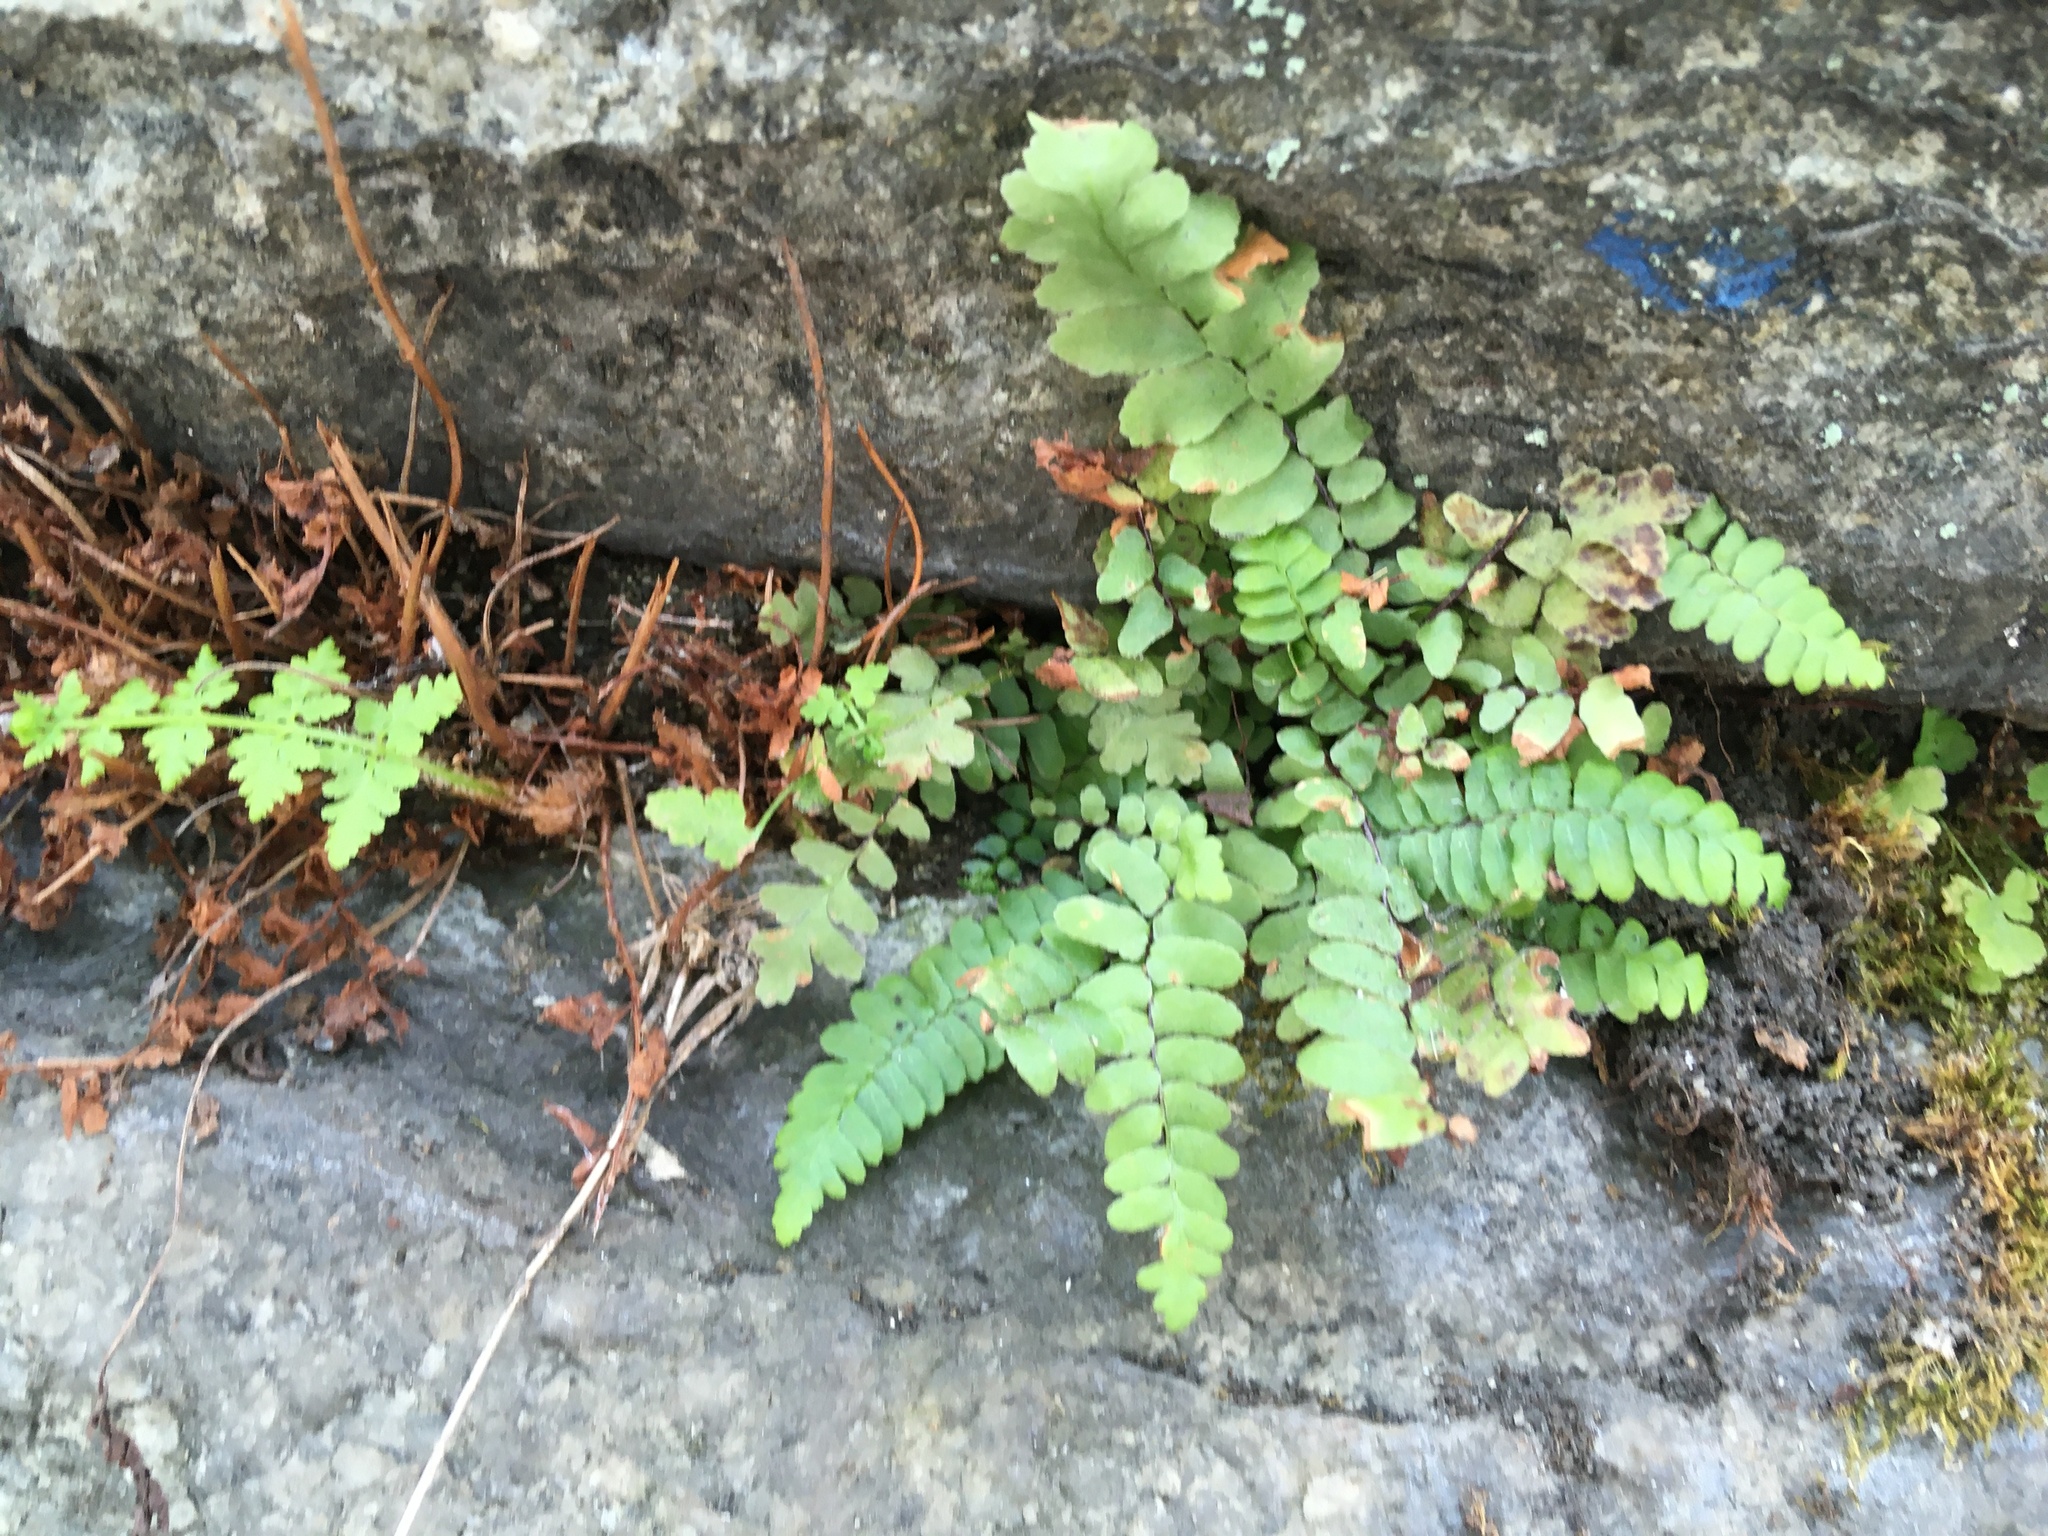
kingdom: Plantae
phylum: Tracheophyta
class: Polypodiopsida
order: Polypodiales
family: Aspleniaceae
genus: Asplenium
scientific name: Asplenium platyneuron
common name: Ebony spleenwort
